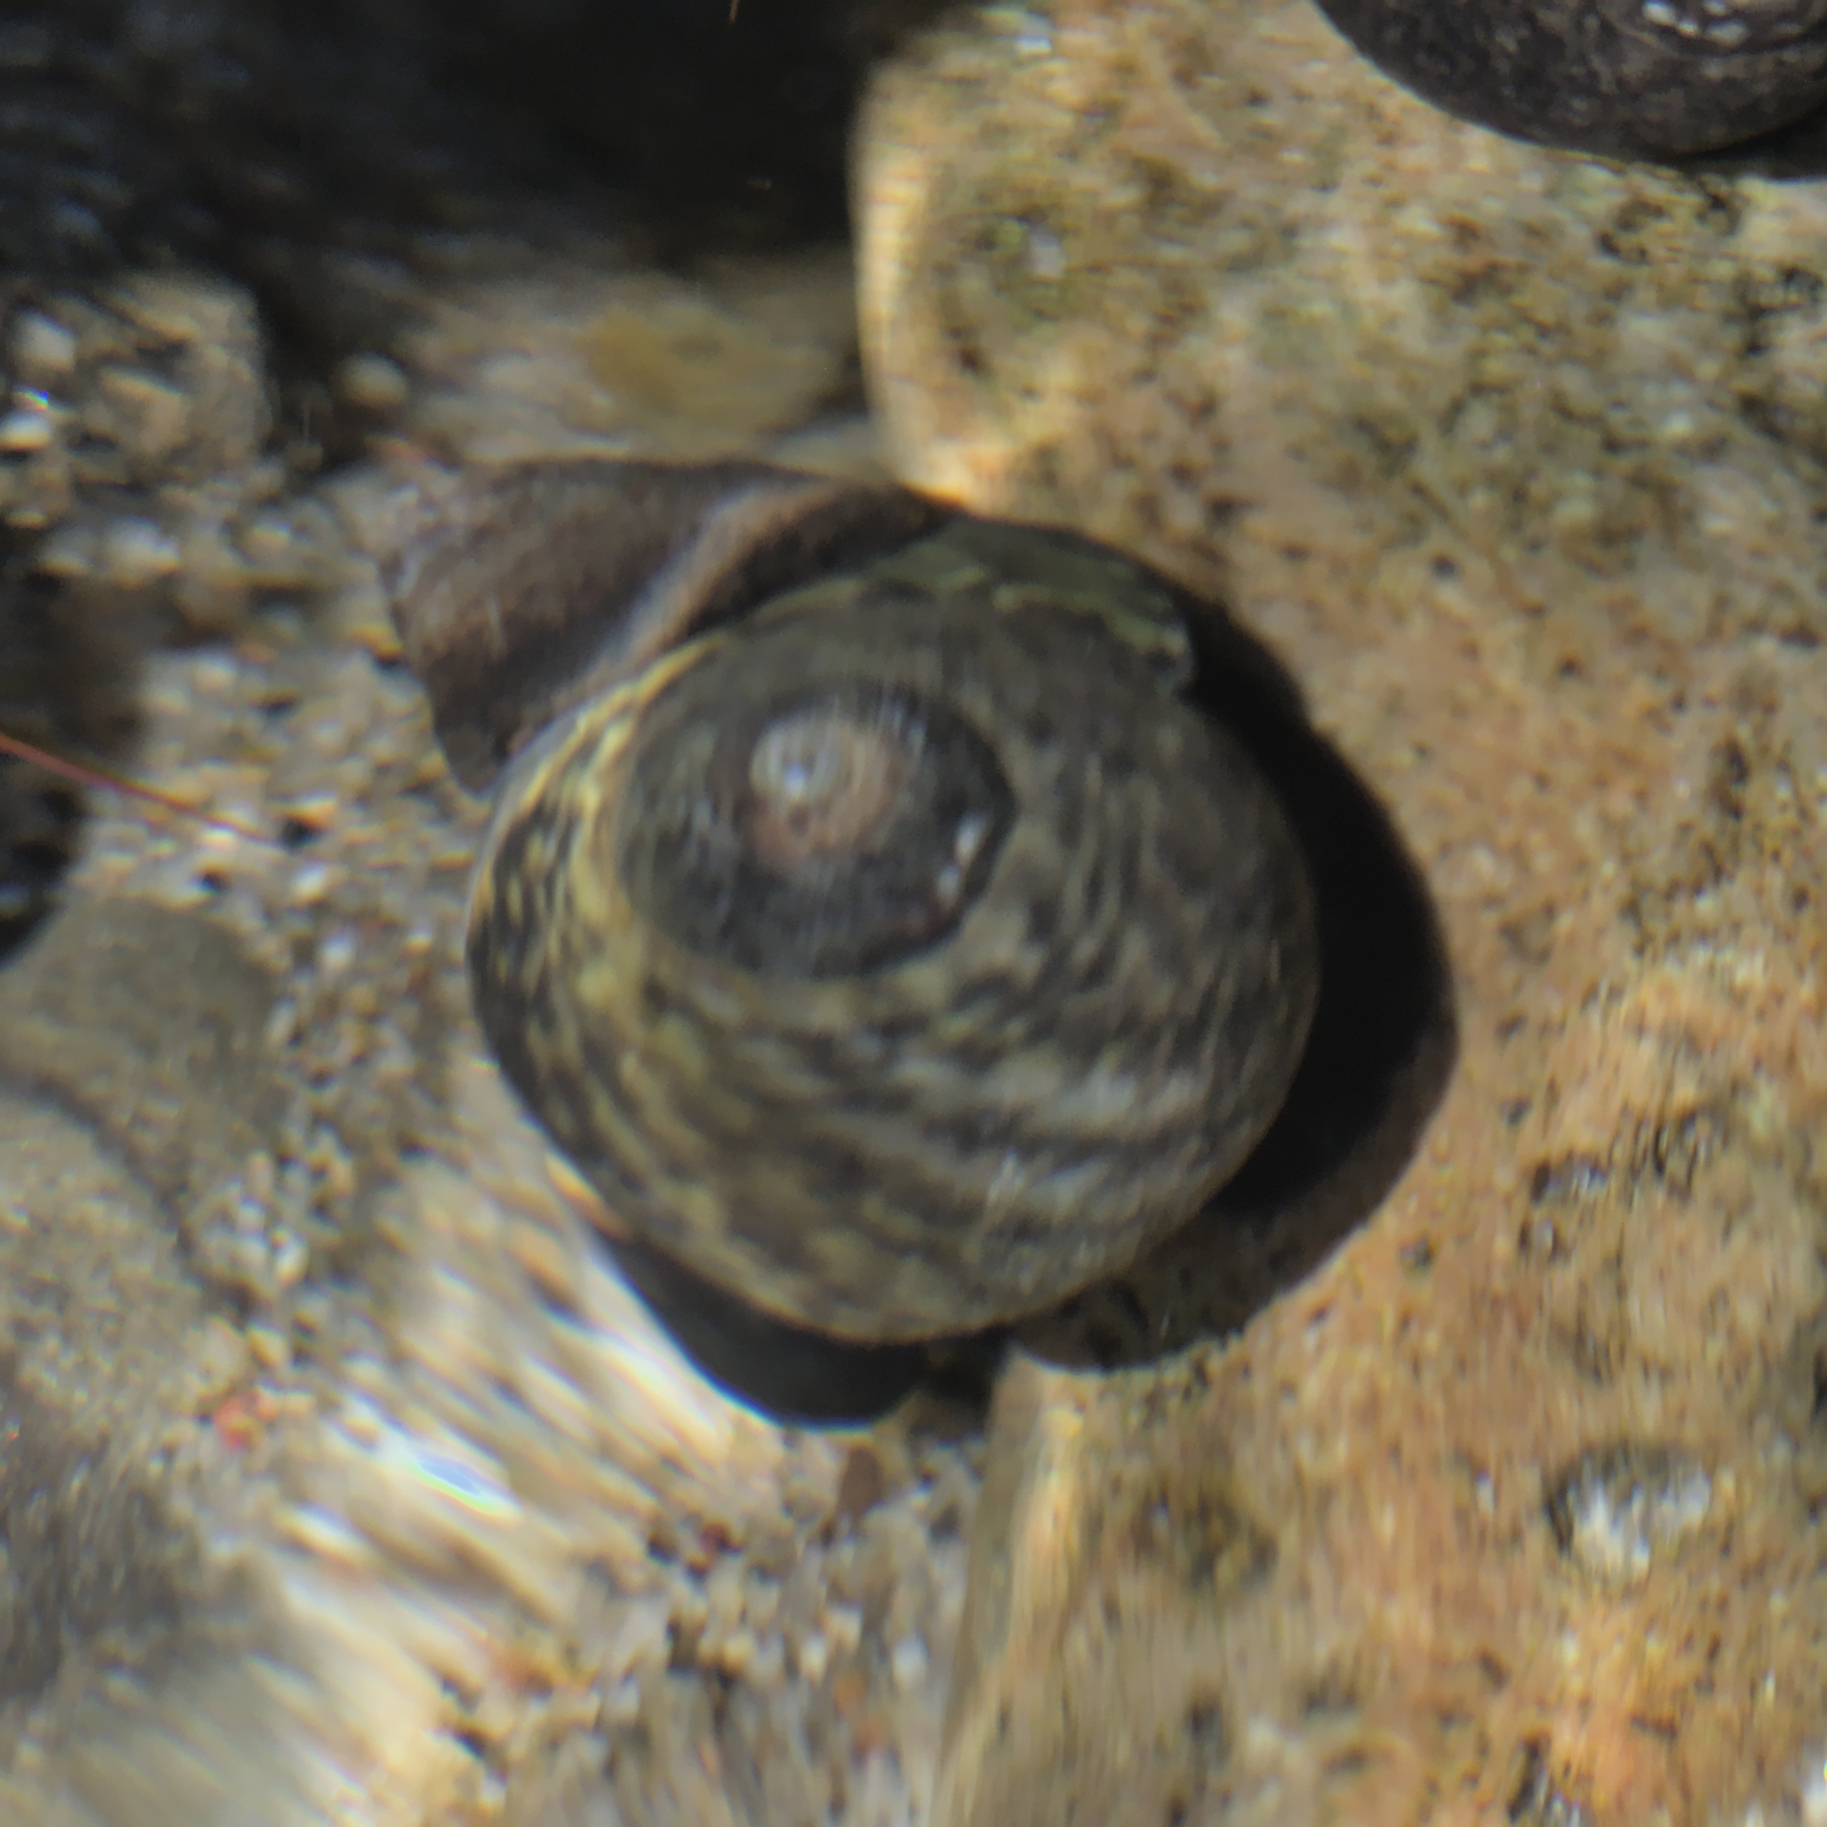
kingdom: Animalia
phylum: Mollusca
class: Gastropoda
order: Trochida
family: Tegulidae
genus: Tegula
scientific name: Tegula gallina
